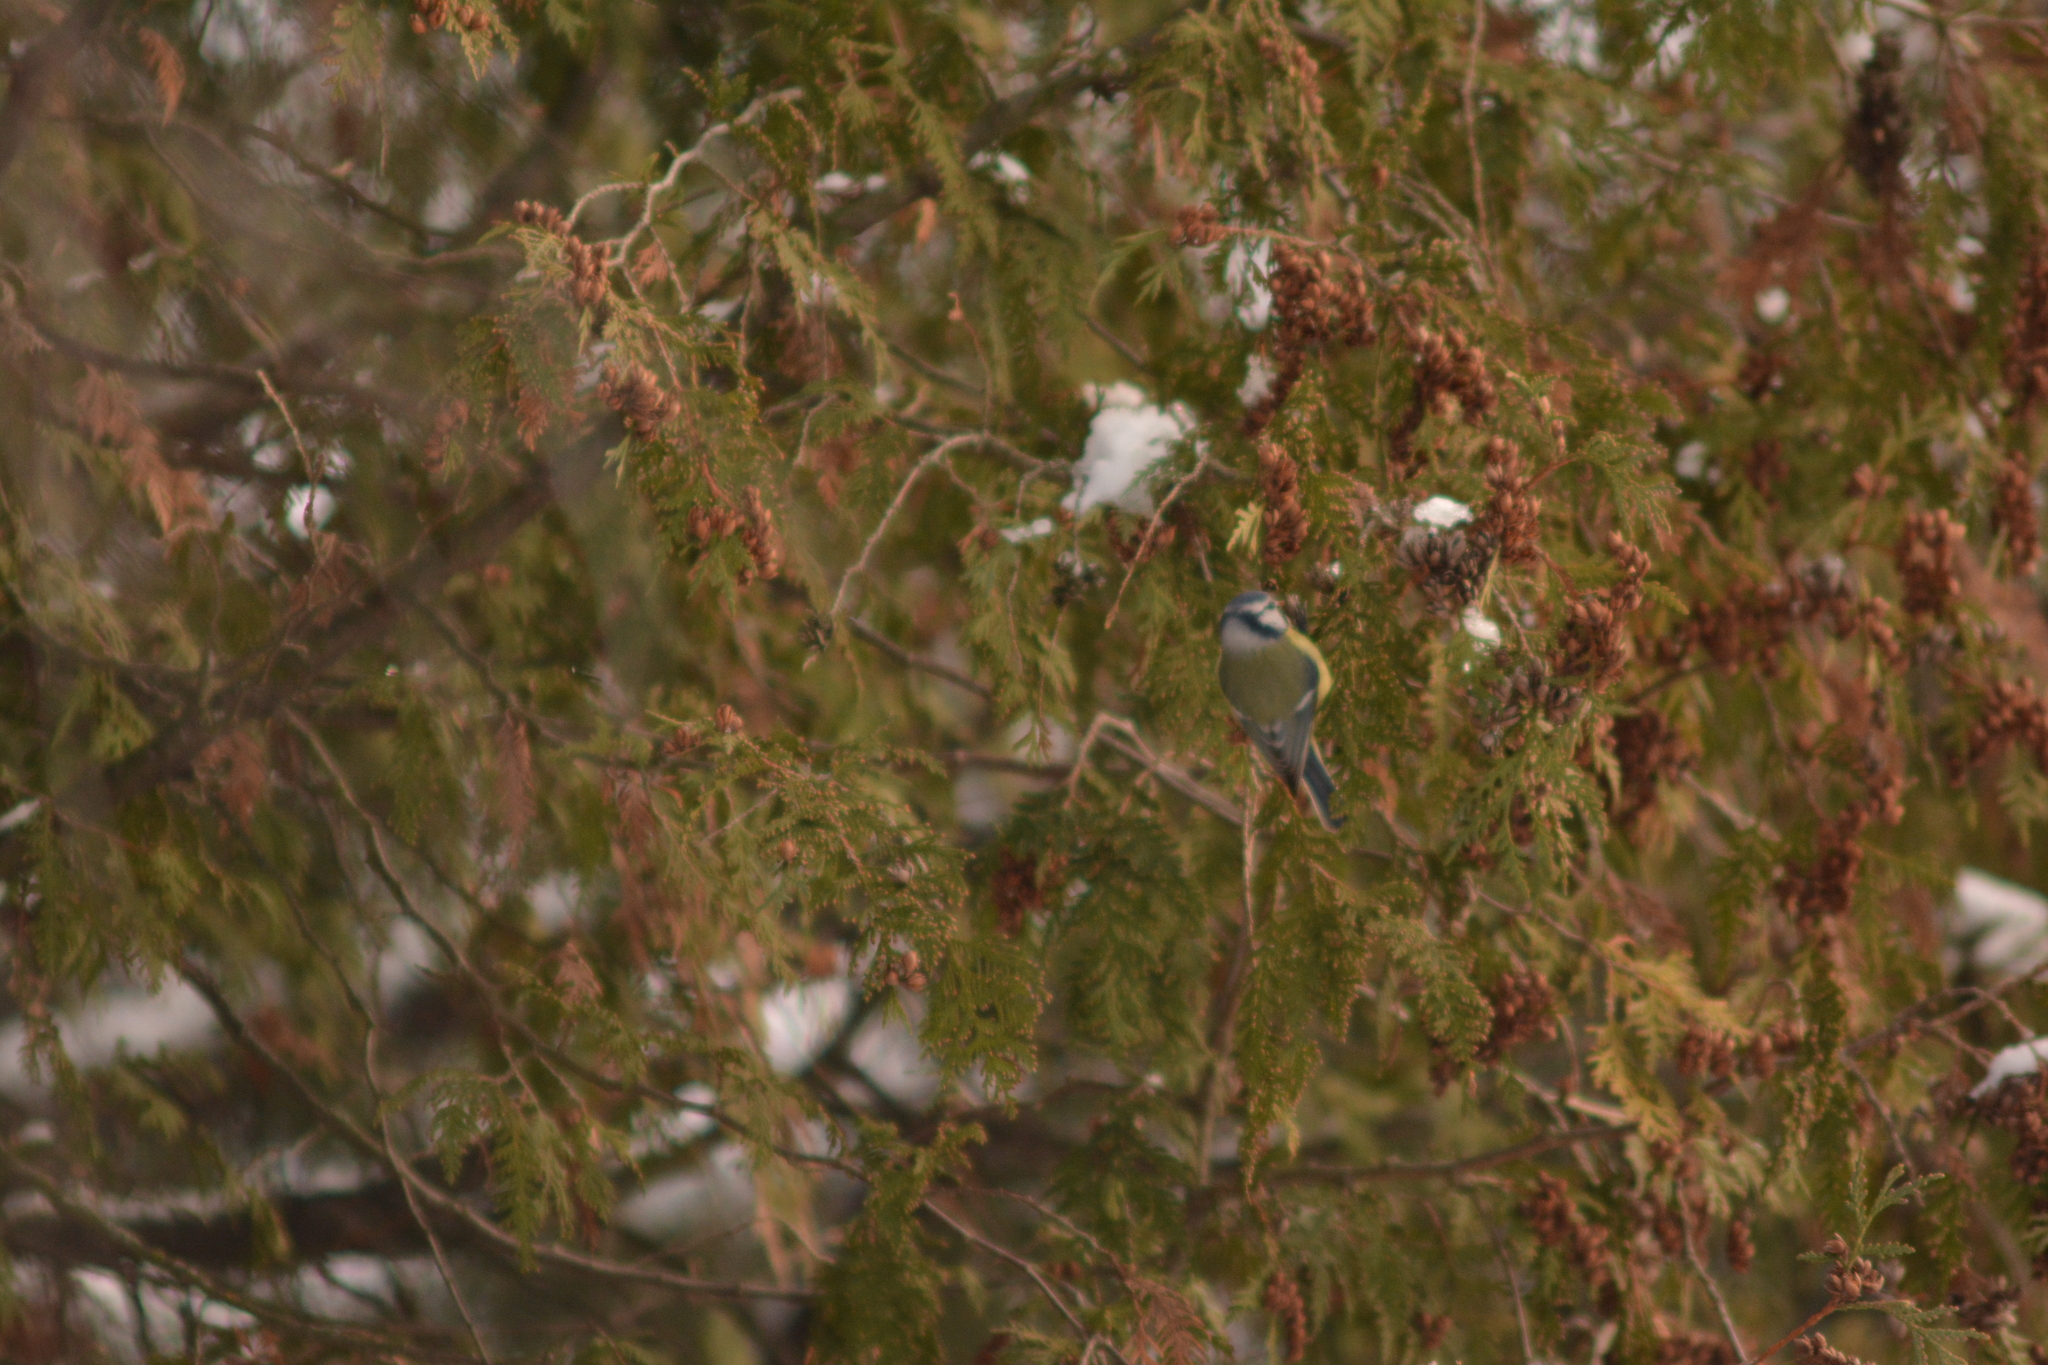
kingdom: Animalia
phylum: Chordata
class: Aves
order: Passeriformes
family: Paridae
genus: Cyanistes
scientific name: Cyanistes caeruleus
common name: Eurasian blue tit
